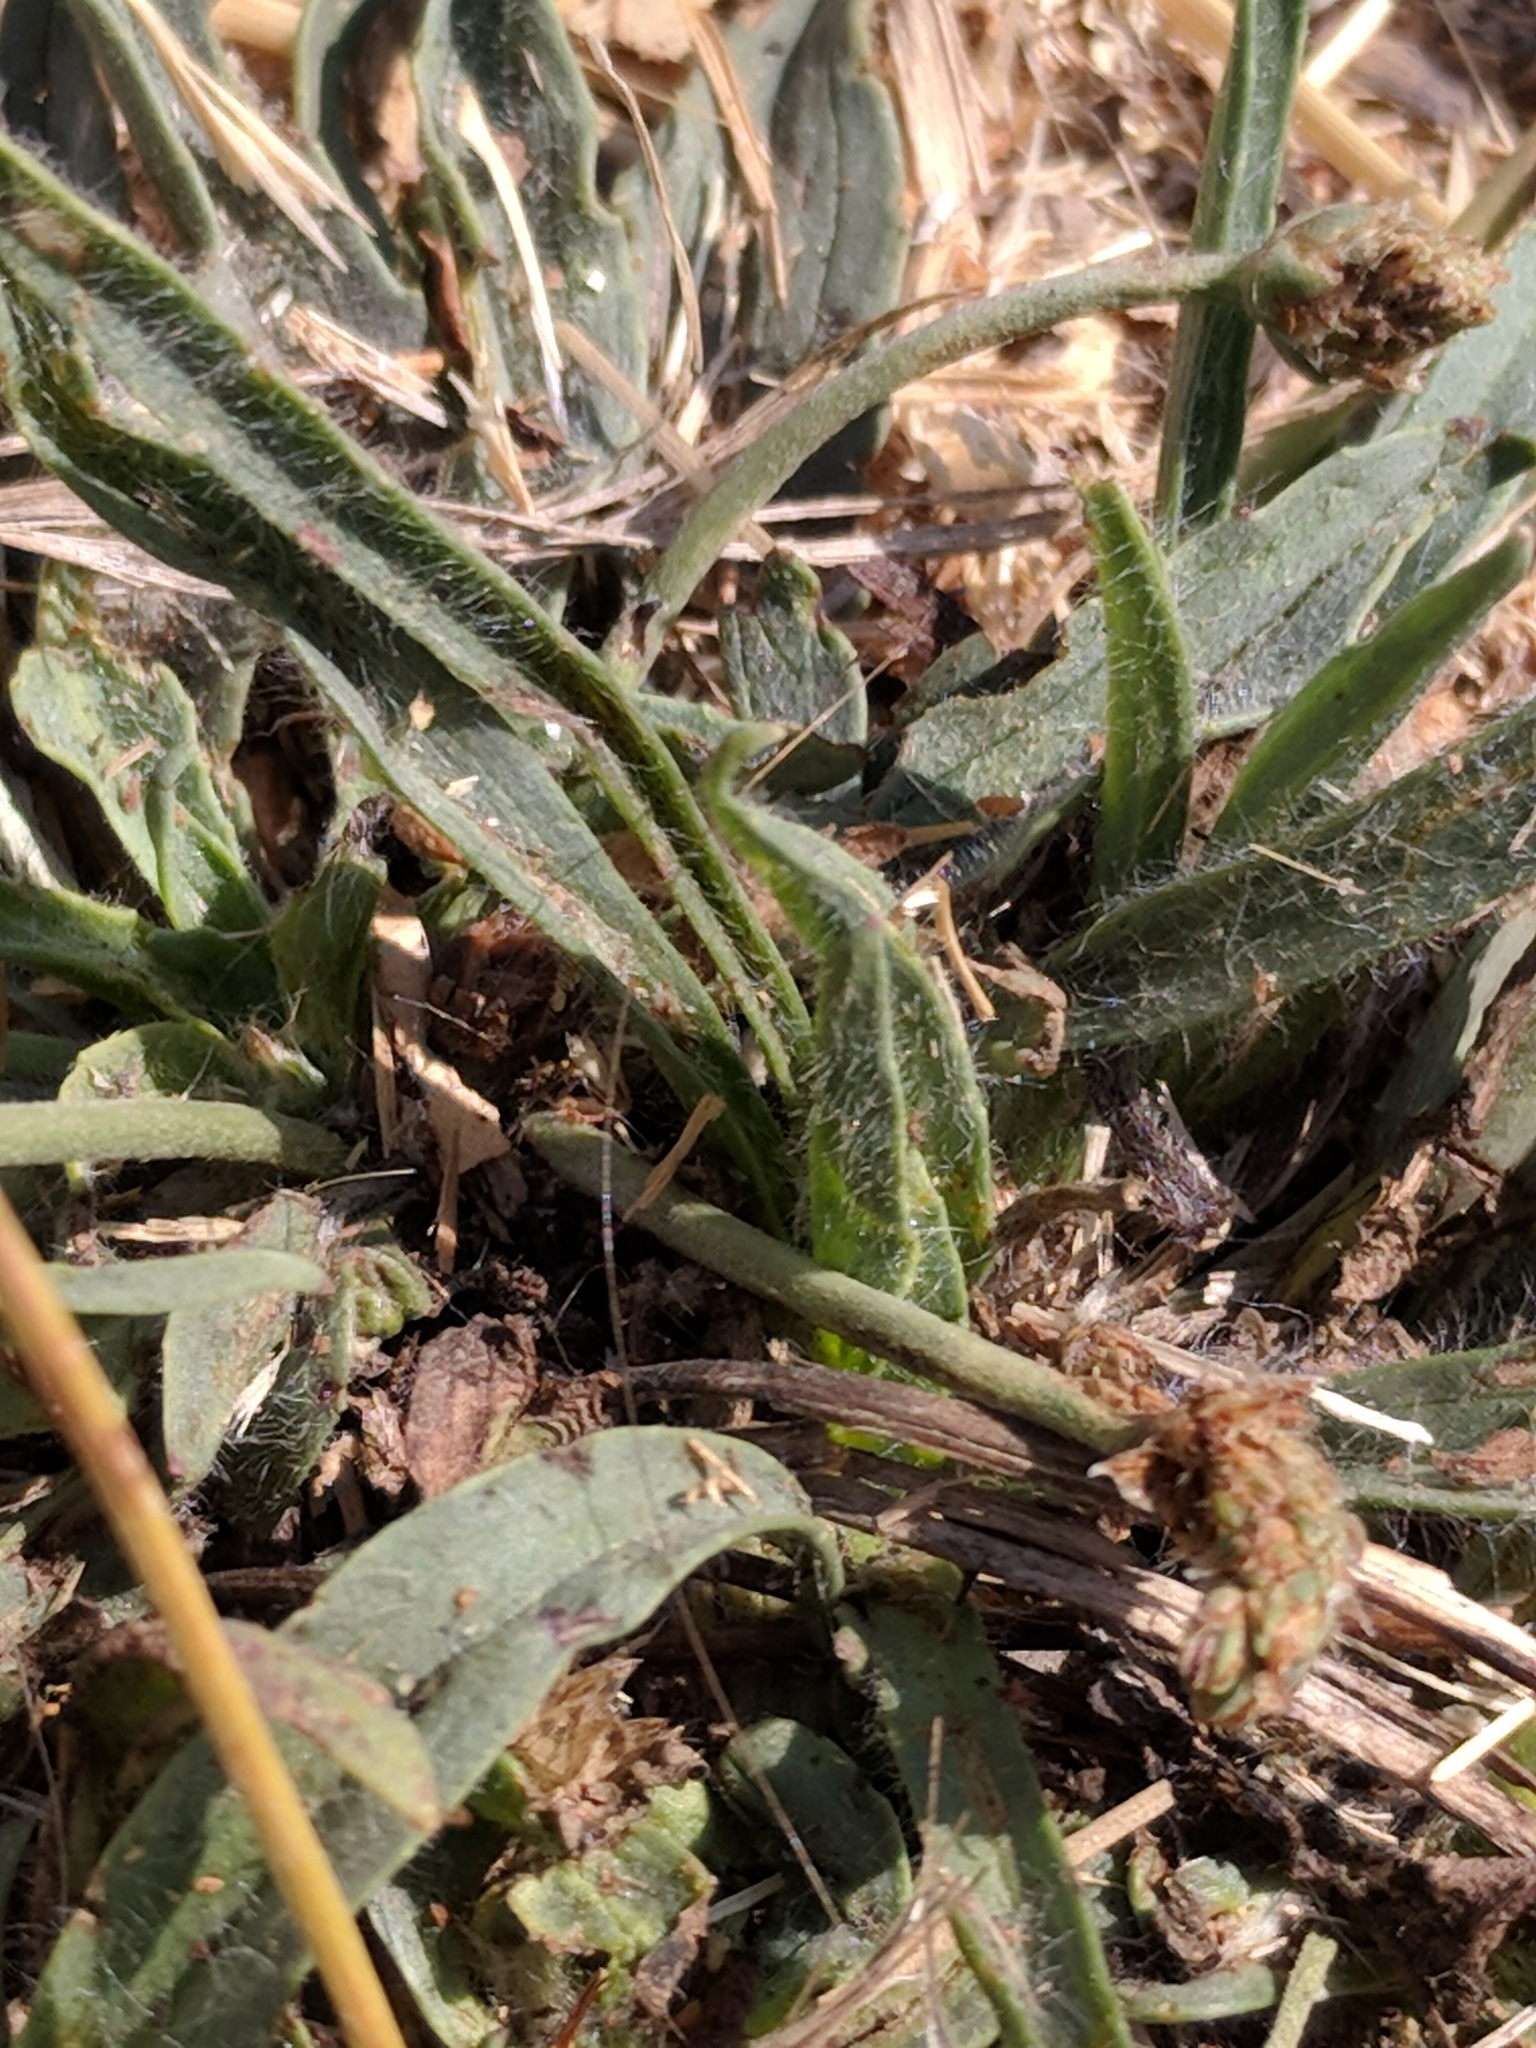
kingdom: Plantae
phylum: Tracheophyta
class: Magnoliopsida
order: Lamiales
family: Plantaginaceae
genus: Plantago
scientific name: Plantago lanceolata
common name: Ribwort plantain
